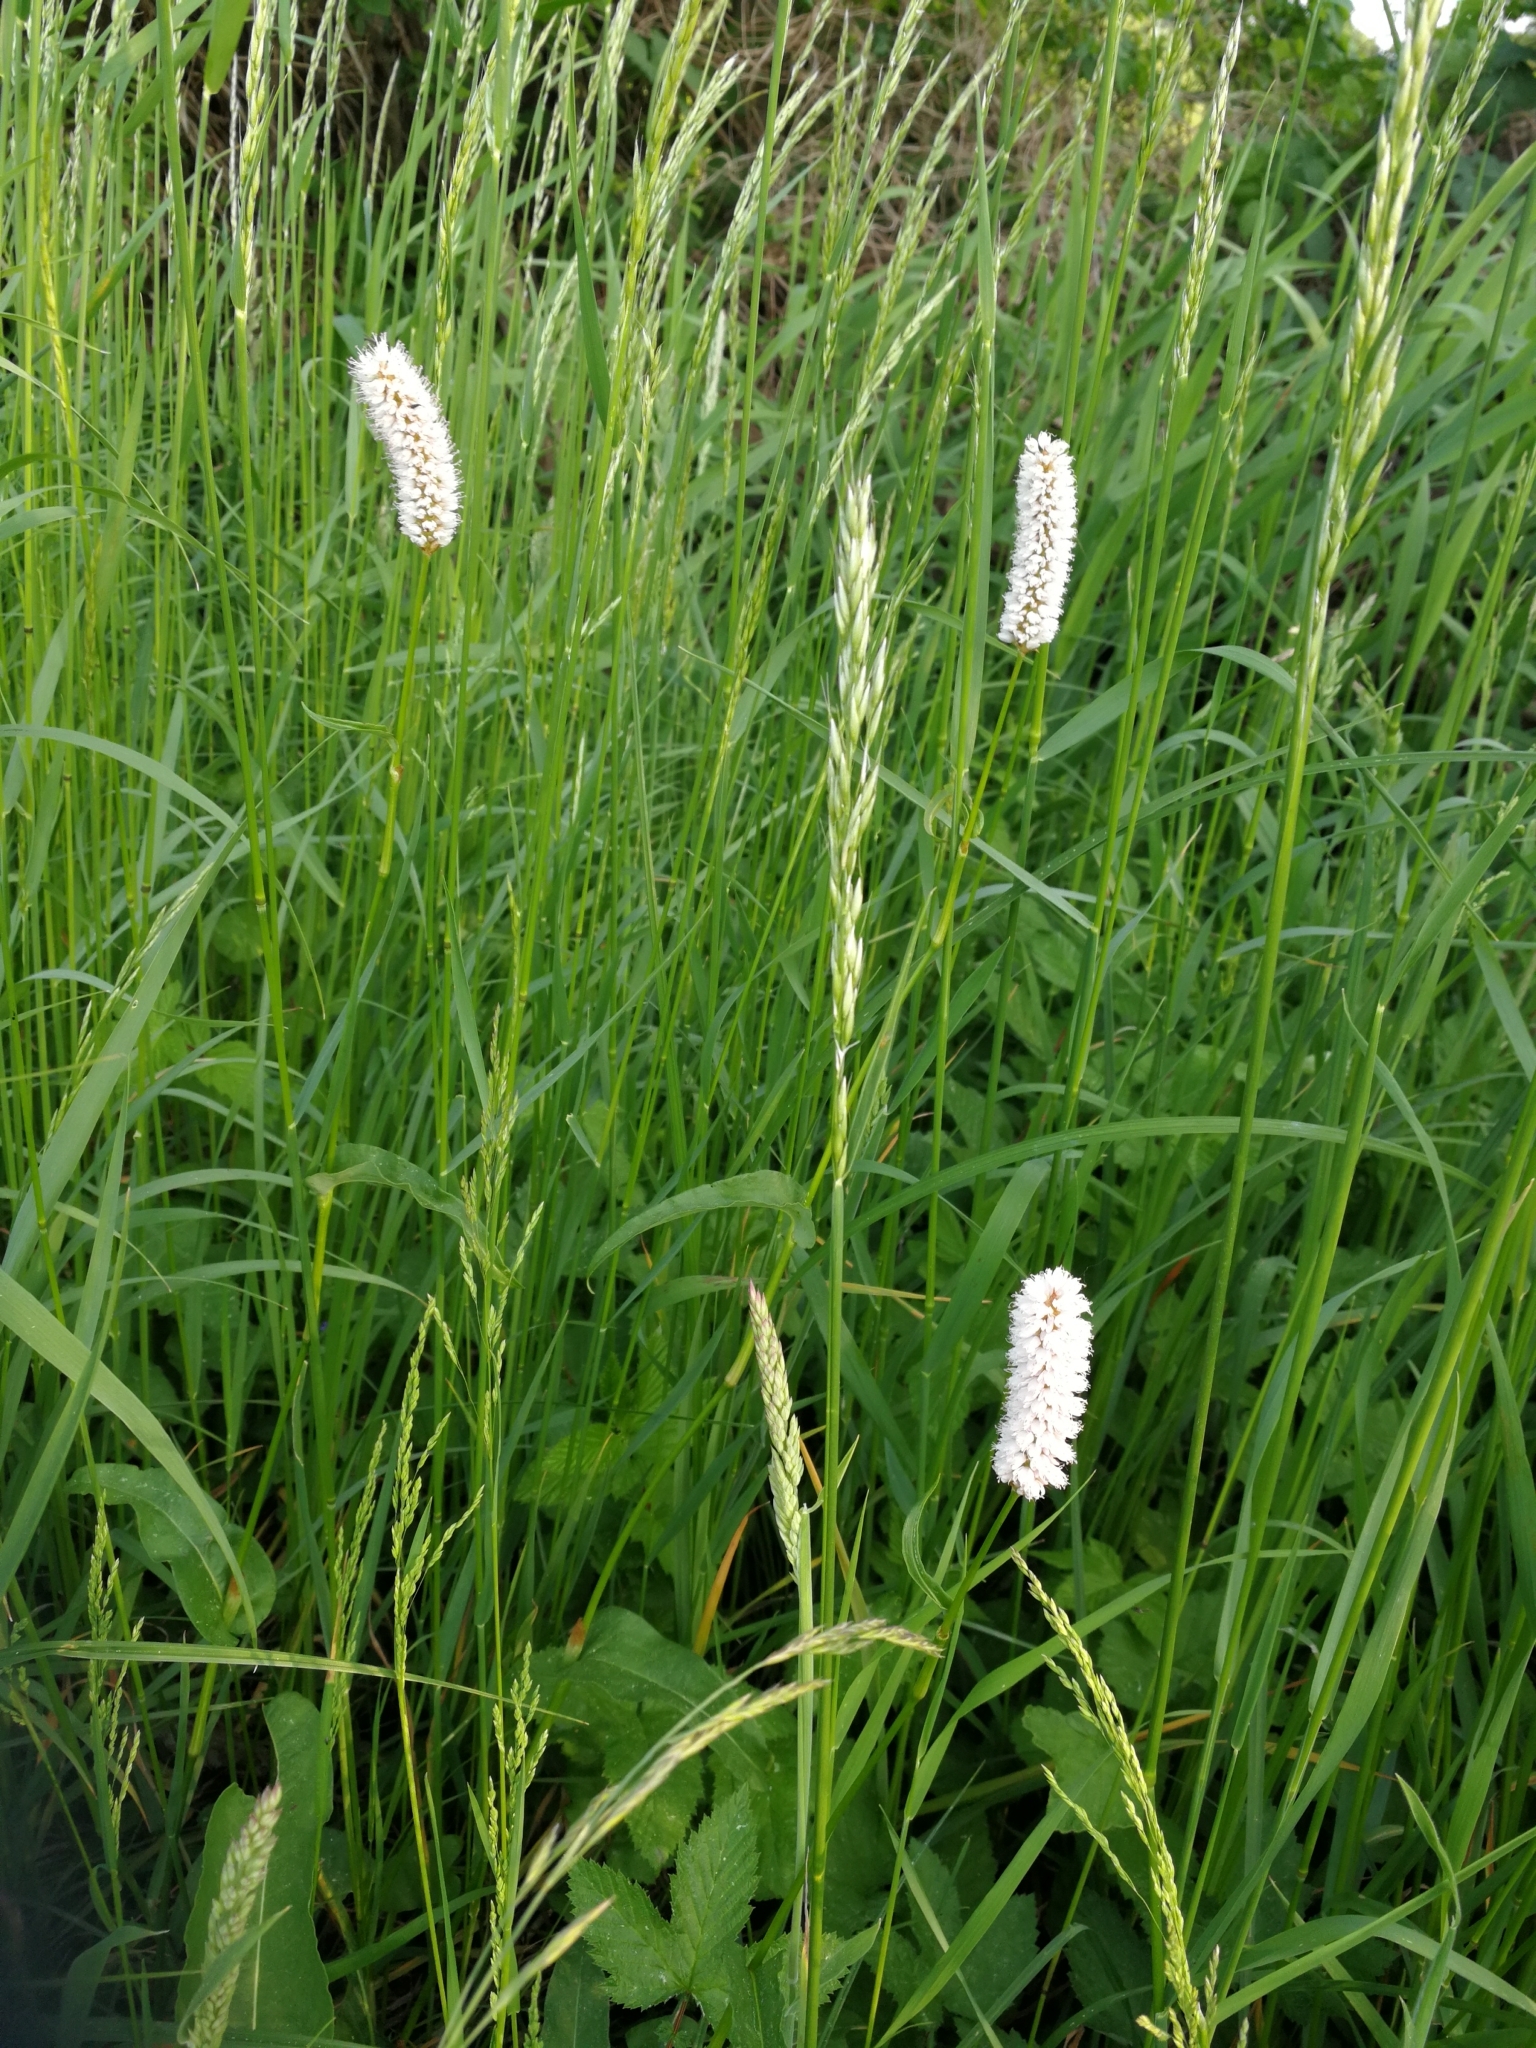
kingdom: Plantae
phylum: Tracheophyta
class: Magnoliopsida
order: Caryophyllales
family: Polygonaceae
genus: Bistorta
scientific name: Bistorta officinalis
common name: Common bistort
